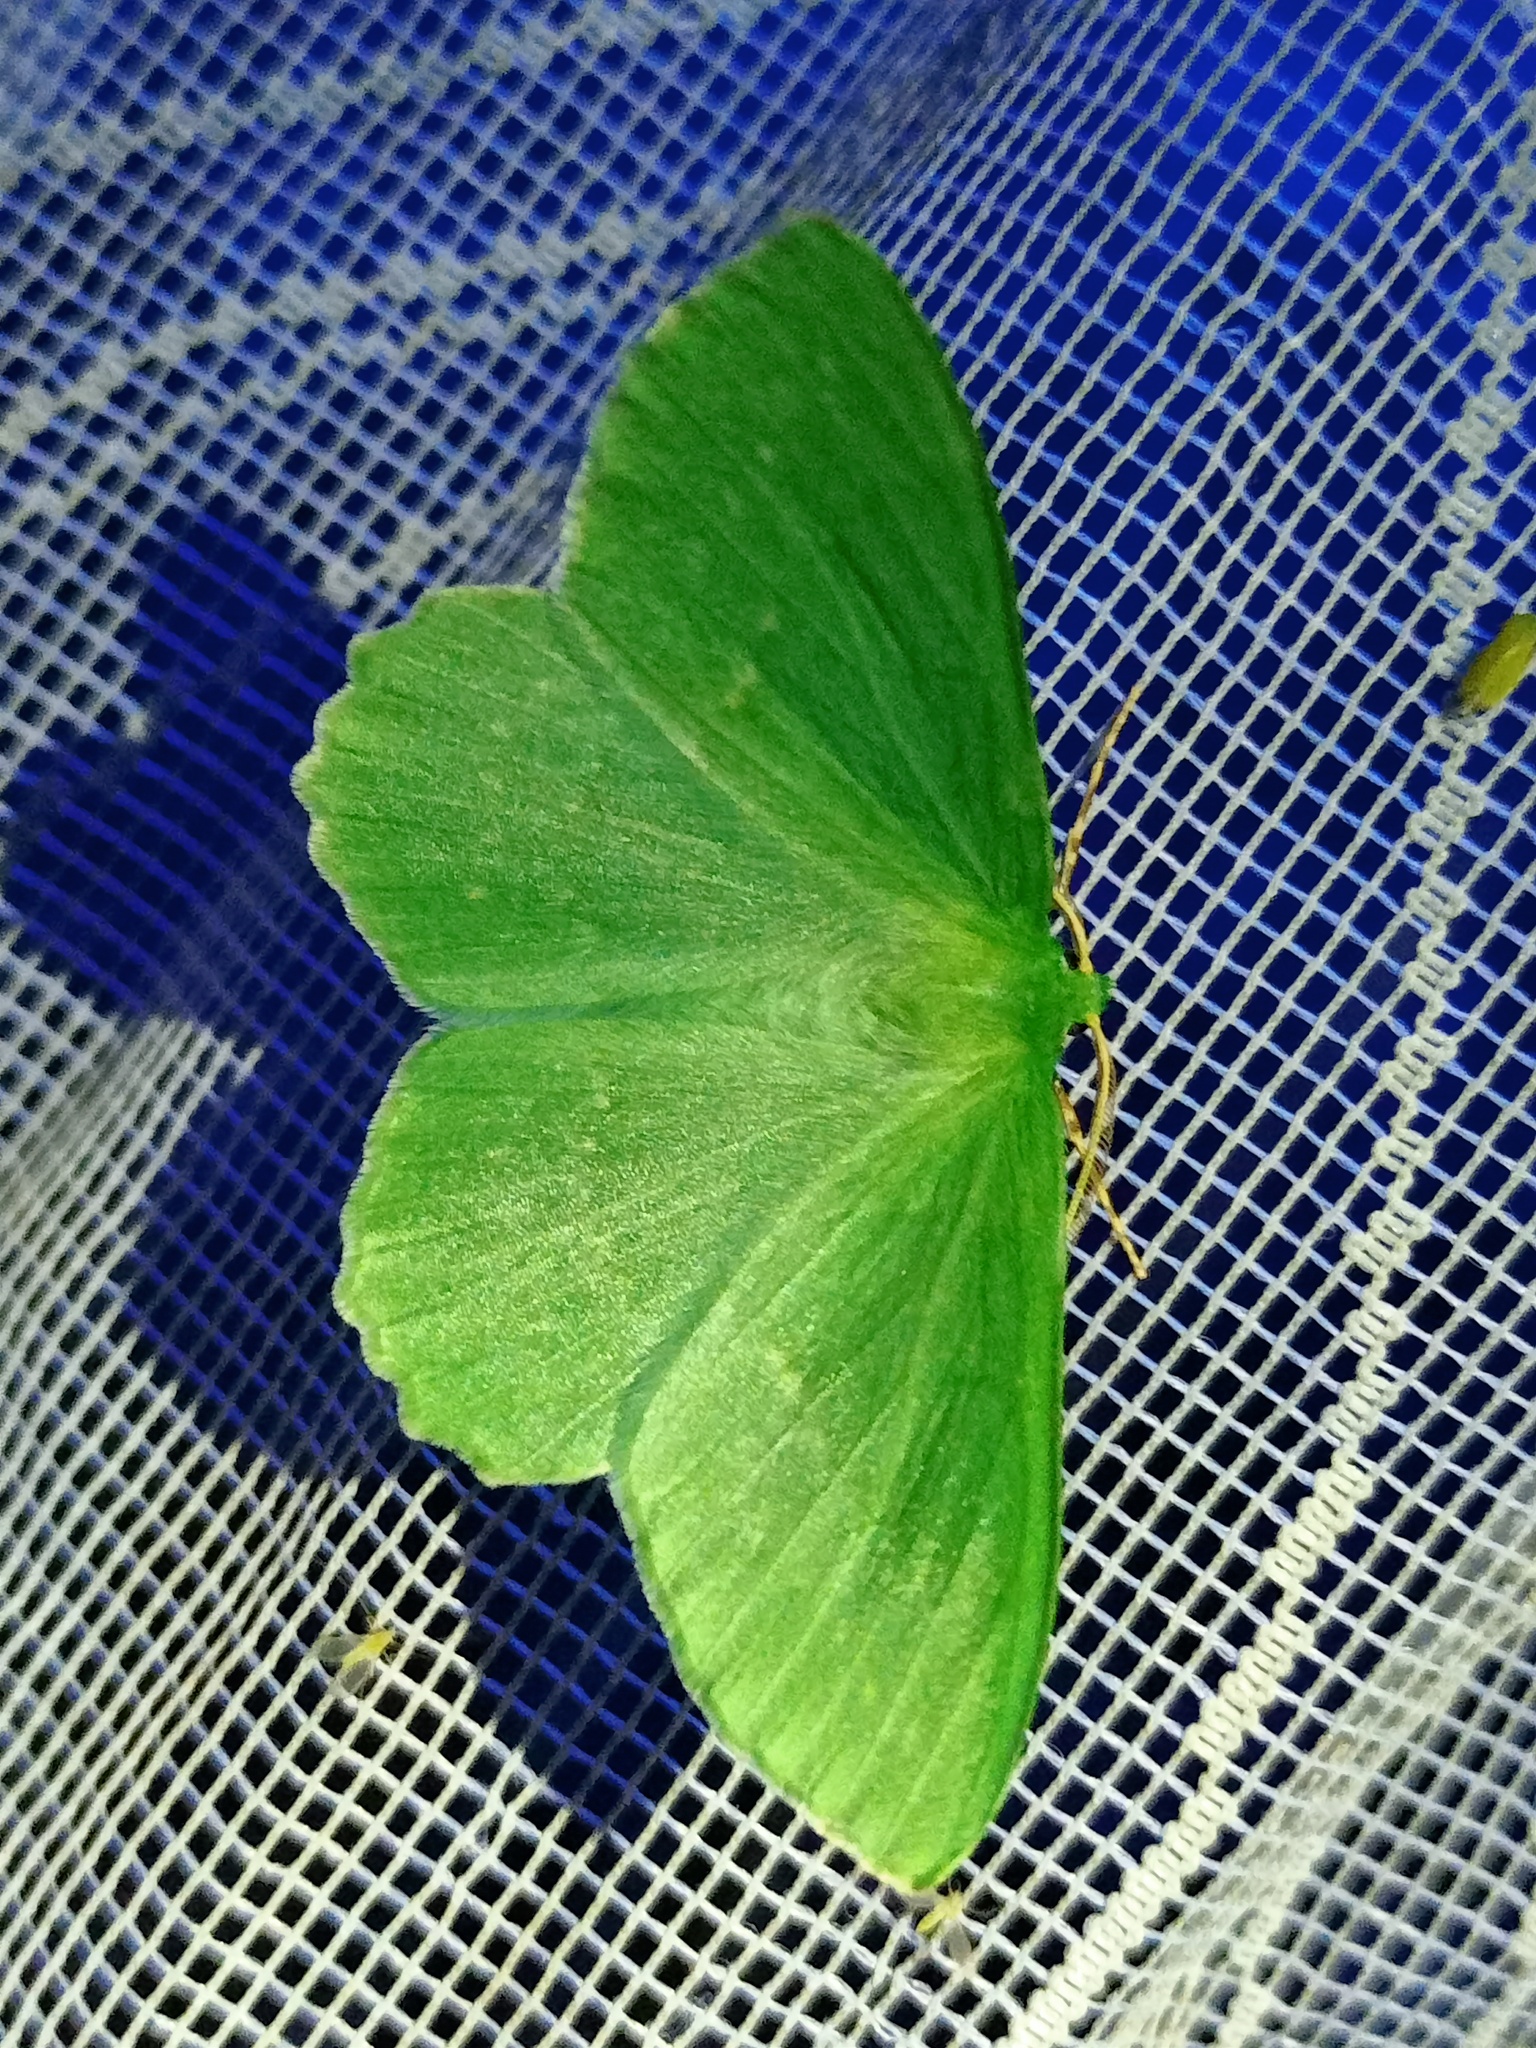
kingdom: Animalia
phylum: Arthropoda
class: Insecta
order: Lepidoptera
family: Geometridae
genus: Geometra
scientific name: Geometra papilionaria
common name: Large emerald
